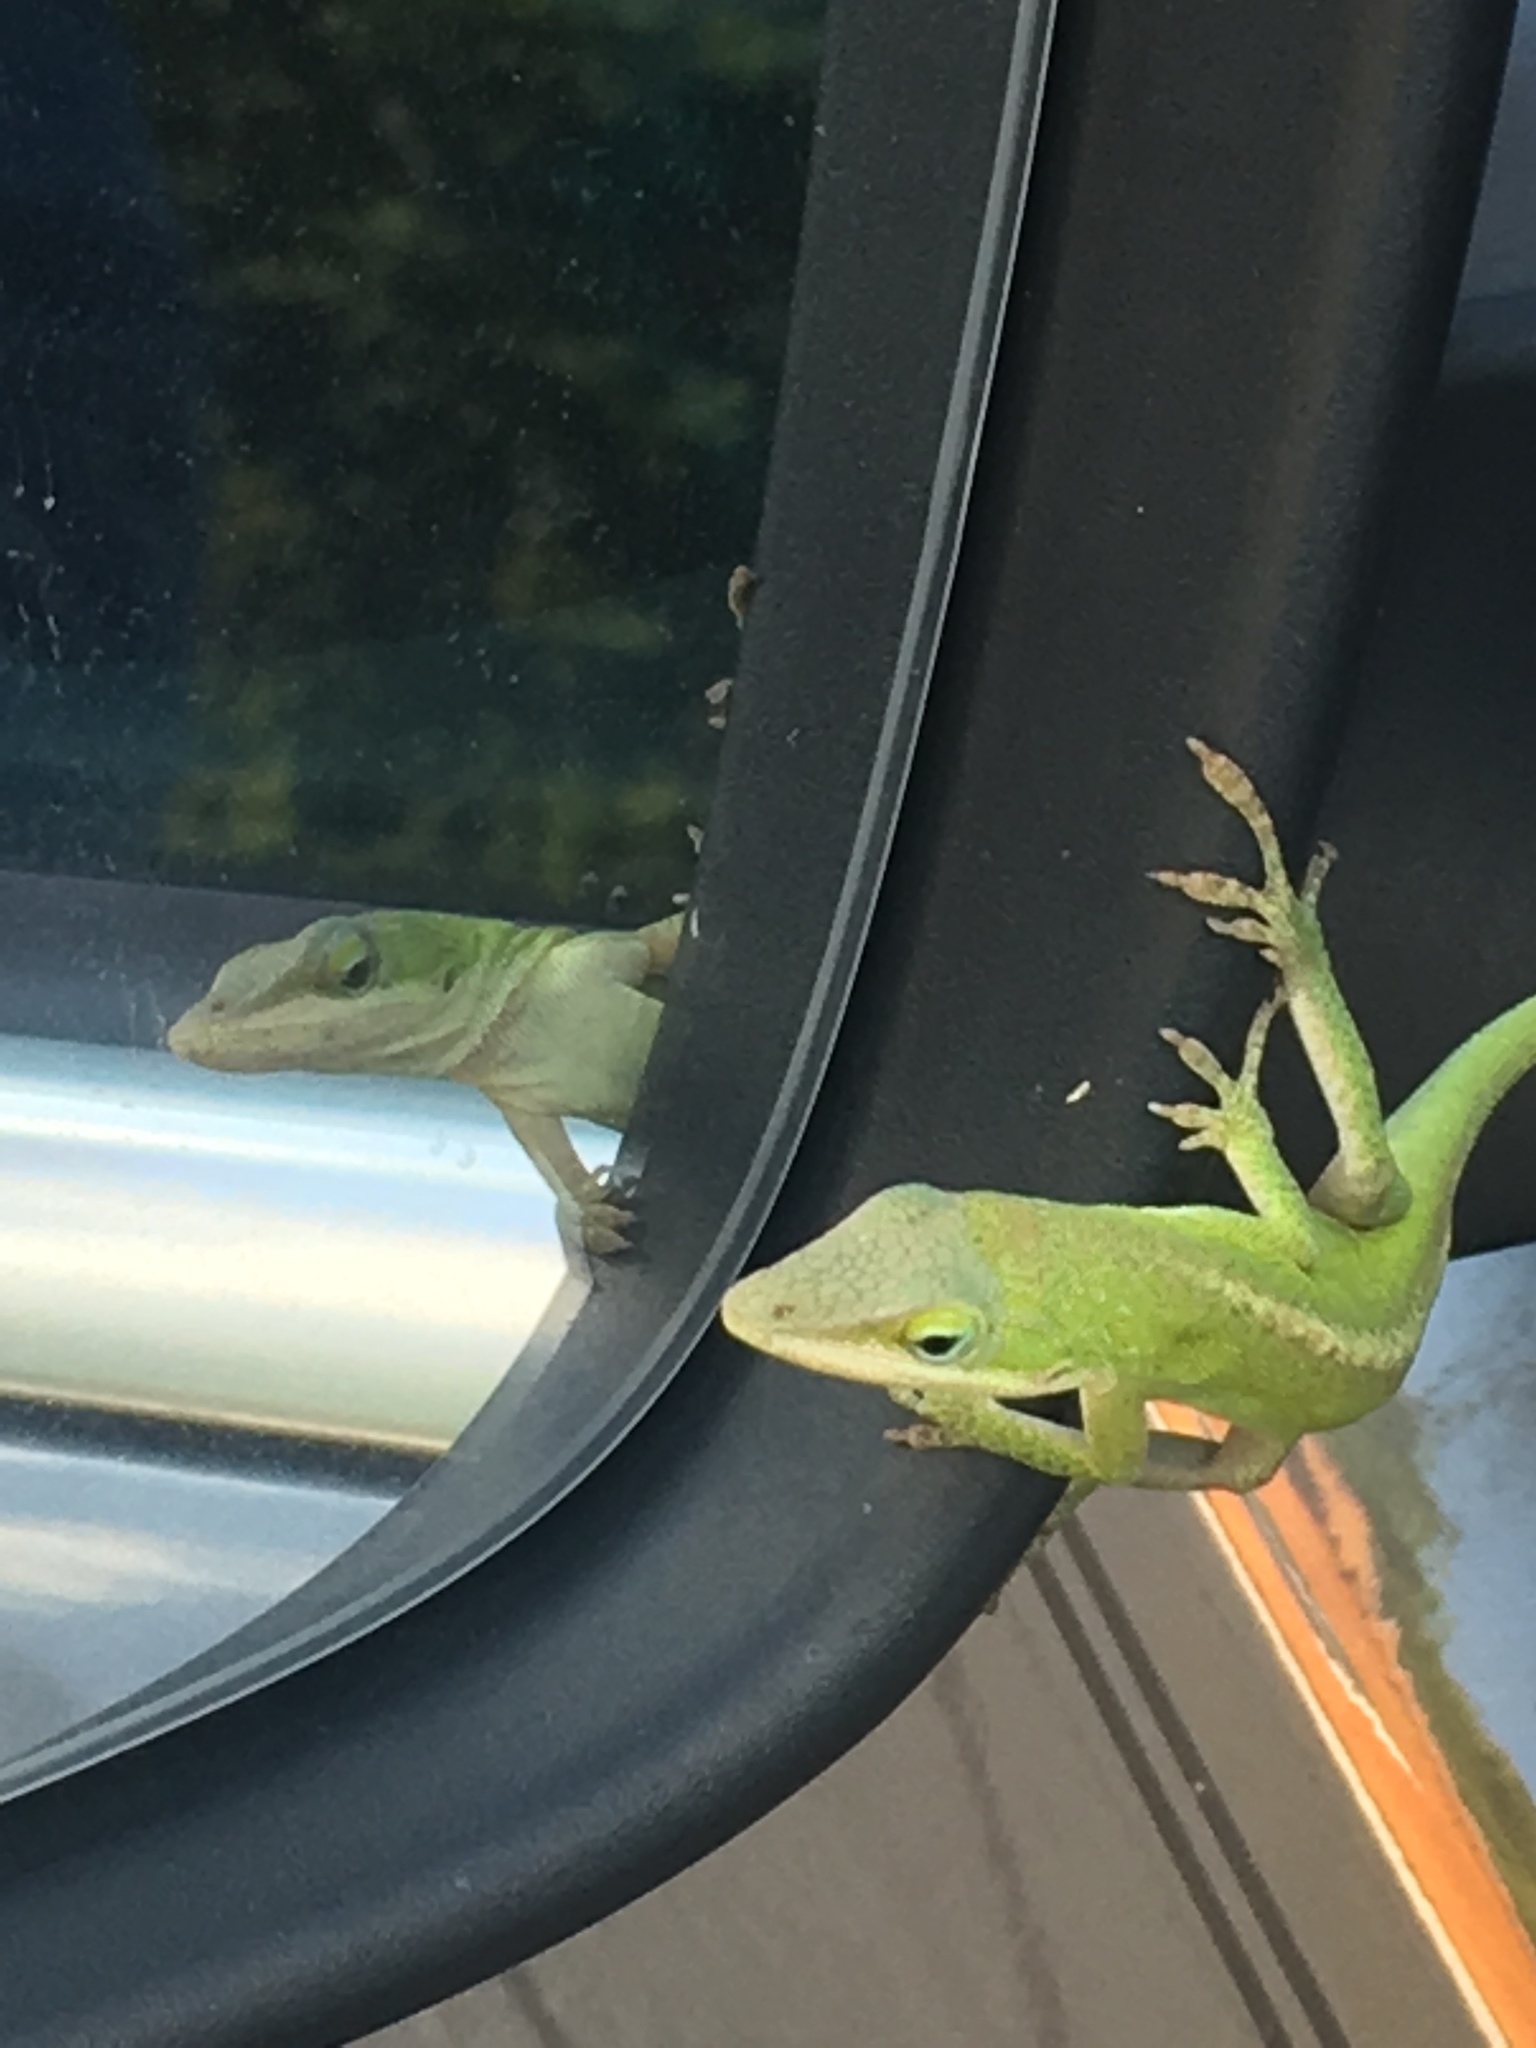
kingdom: Animalia
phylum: Chordata
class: Squamata
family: Dactyloidae
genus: Anolis
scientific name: Anolis carolinensis
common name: Green anole
